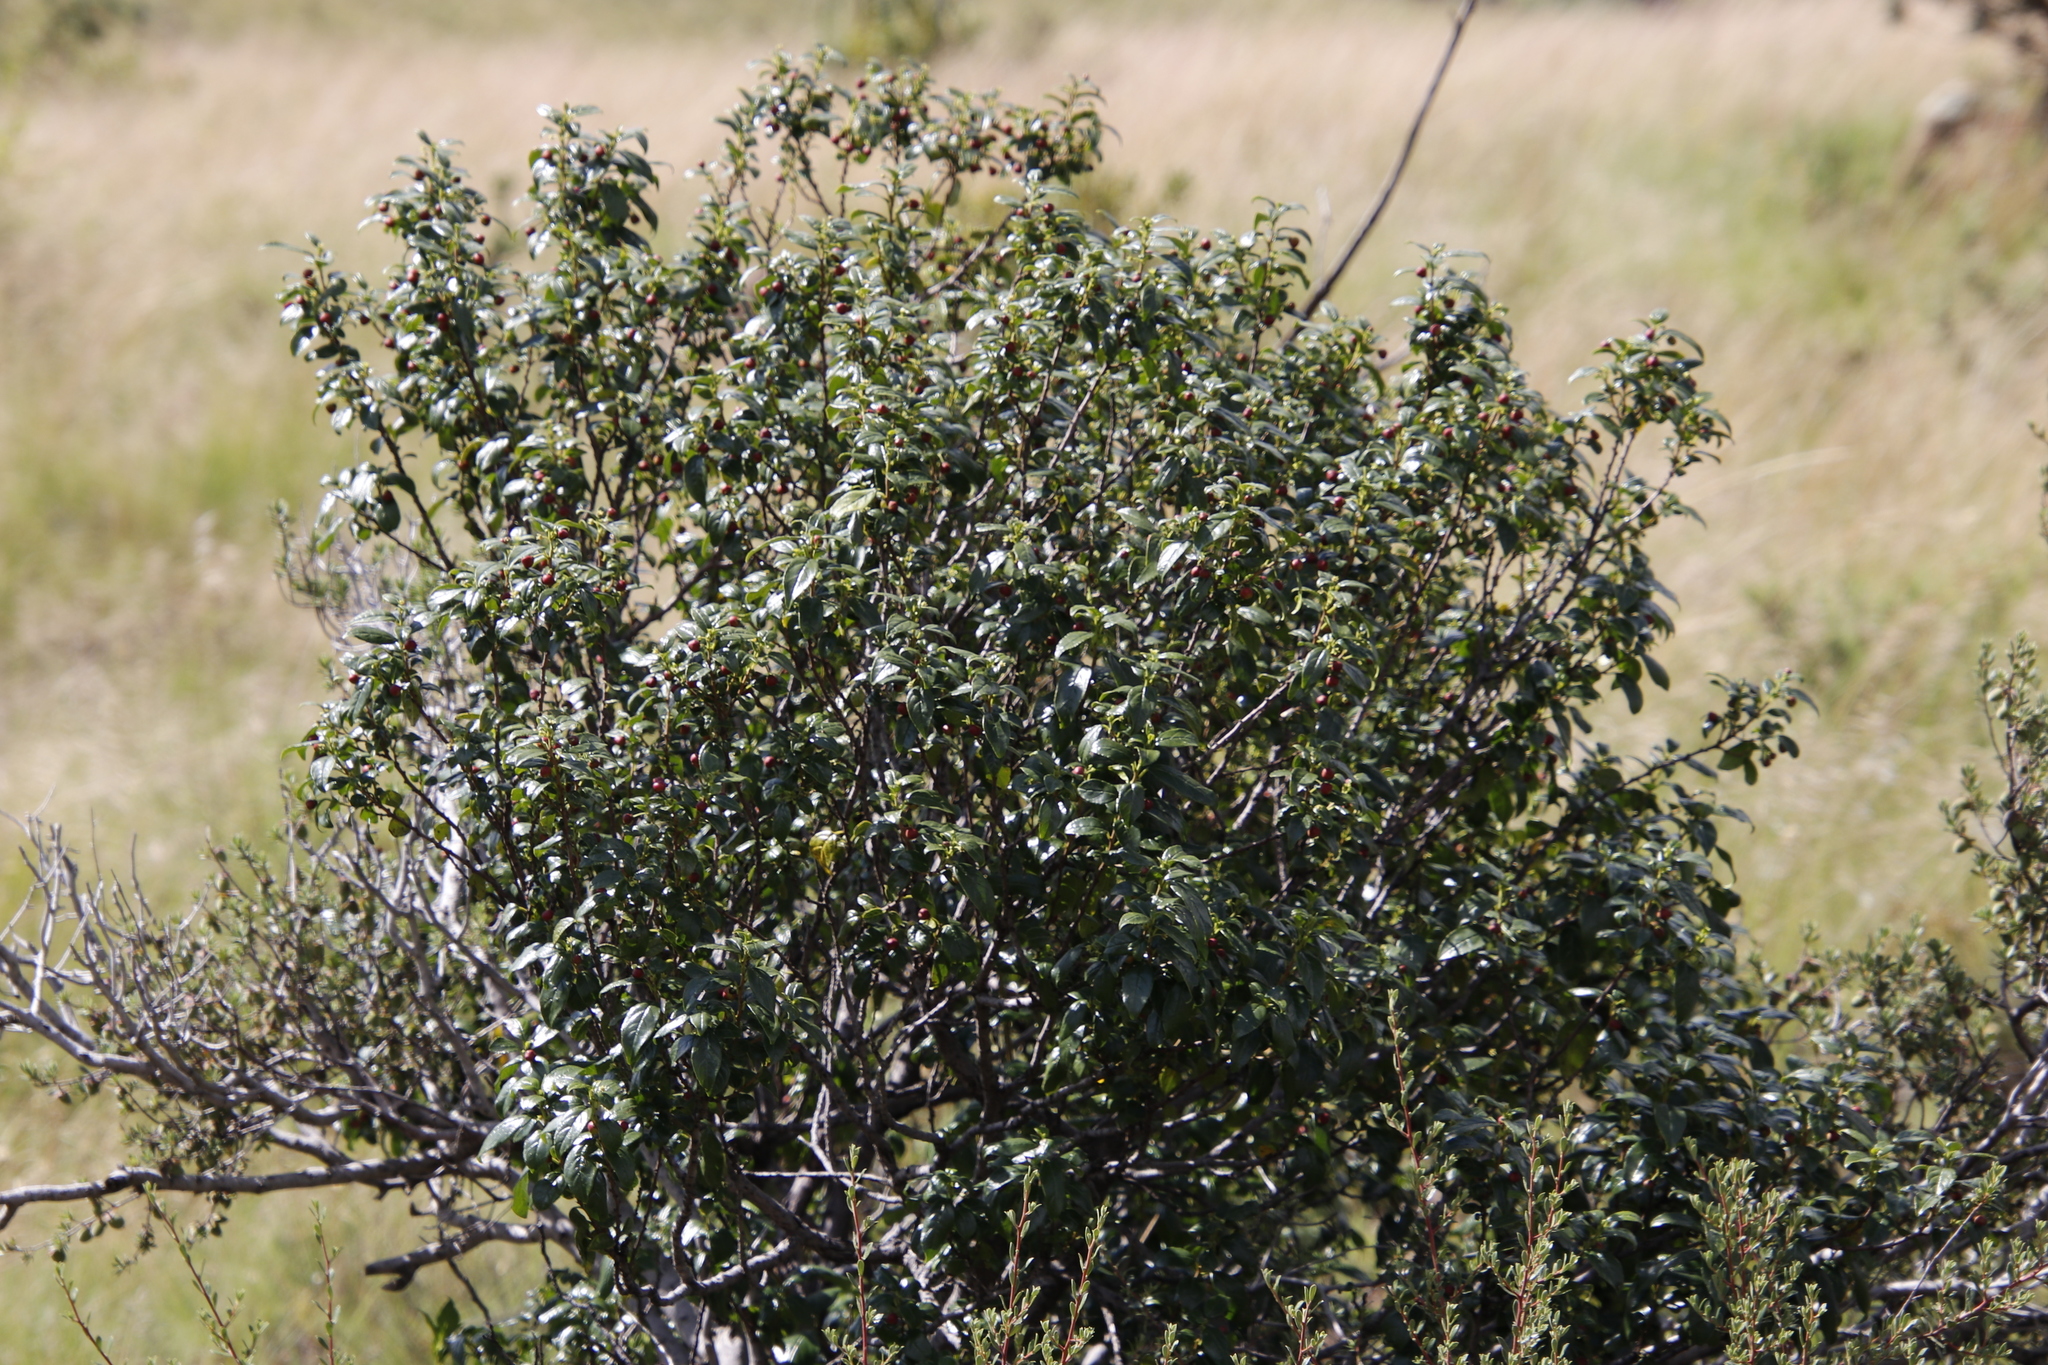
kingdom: Plantae
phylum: Tracheophyta
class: Magnoliopsida
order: Rosales
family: Rhamnaceae
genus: Rhamnus
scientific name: Rhamnus prinoides
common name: Dogwood
